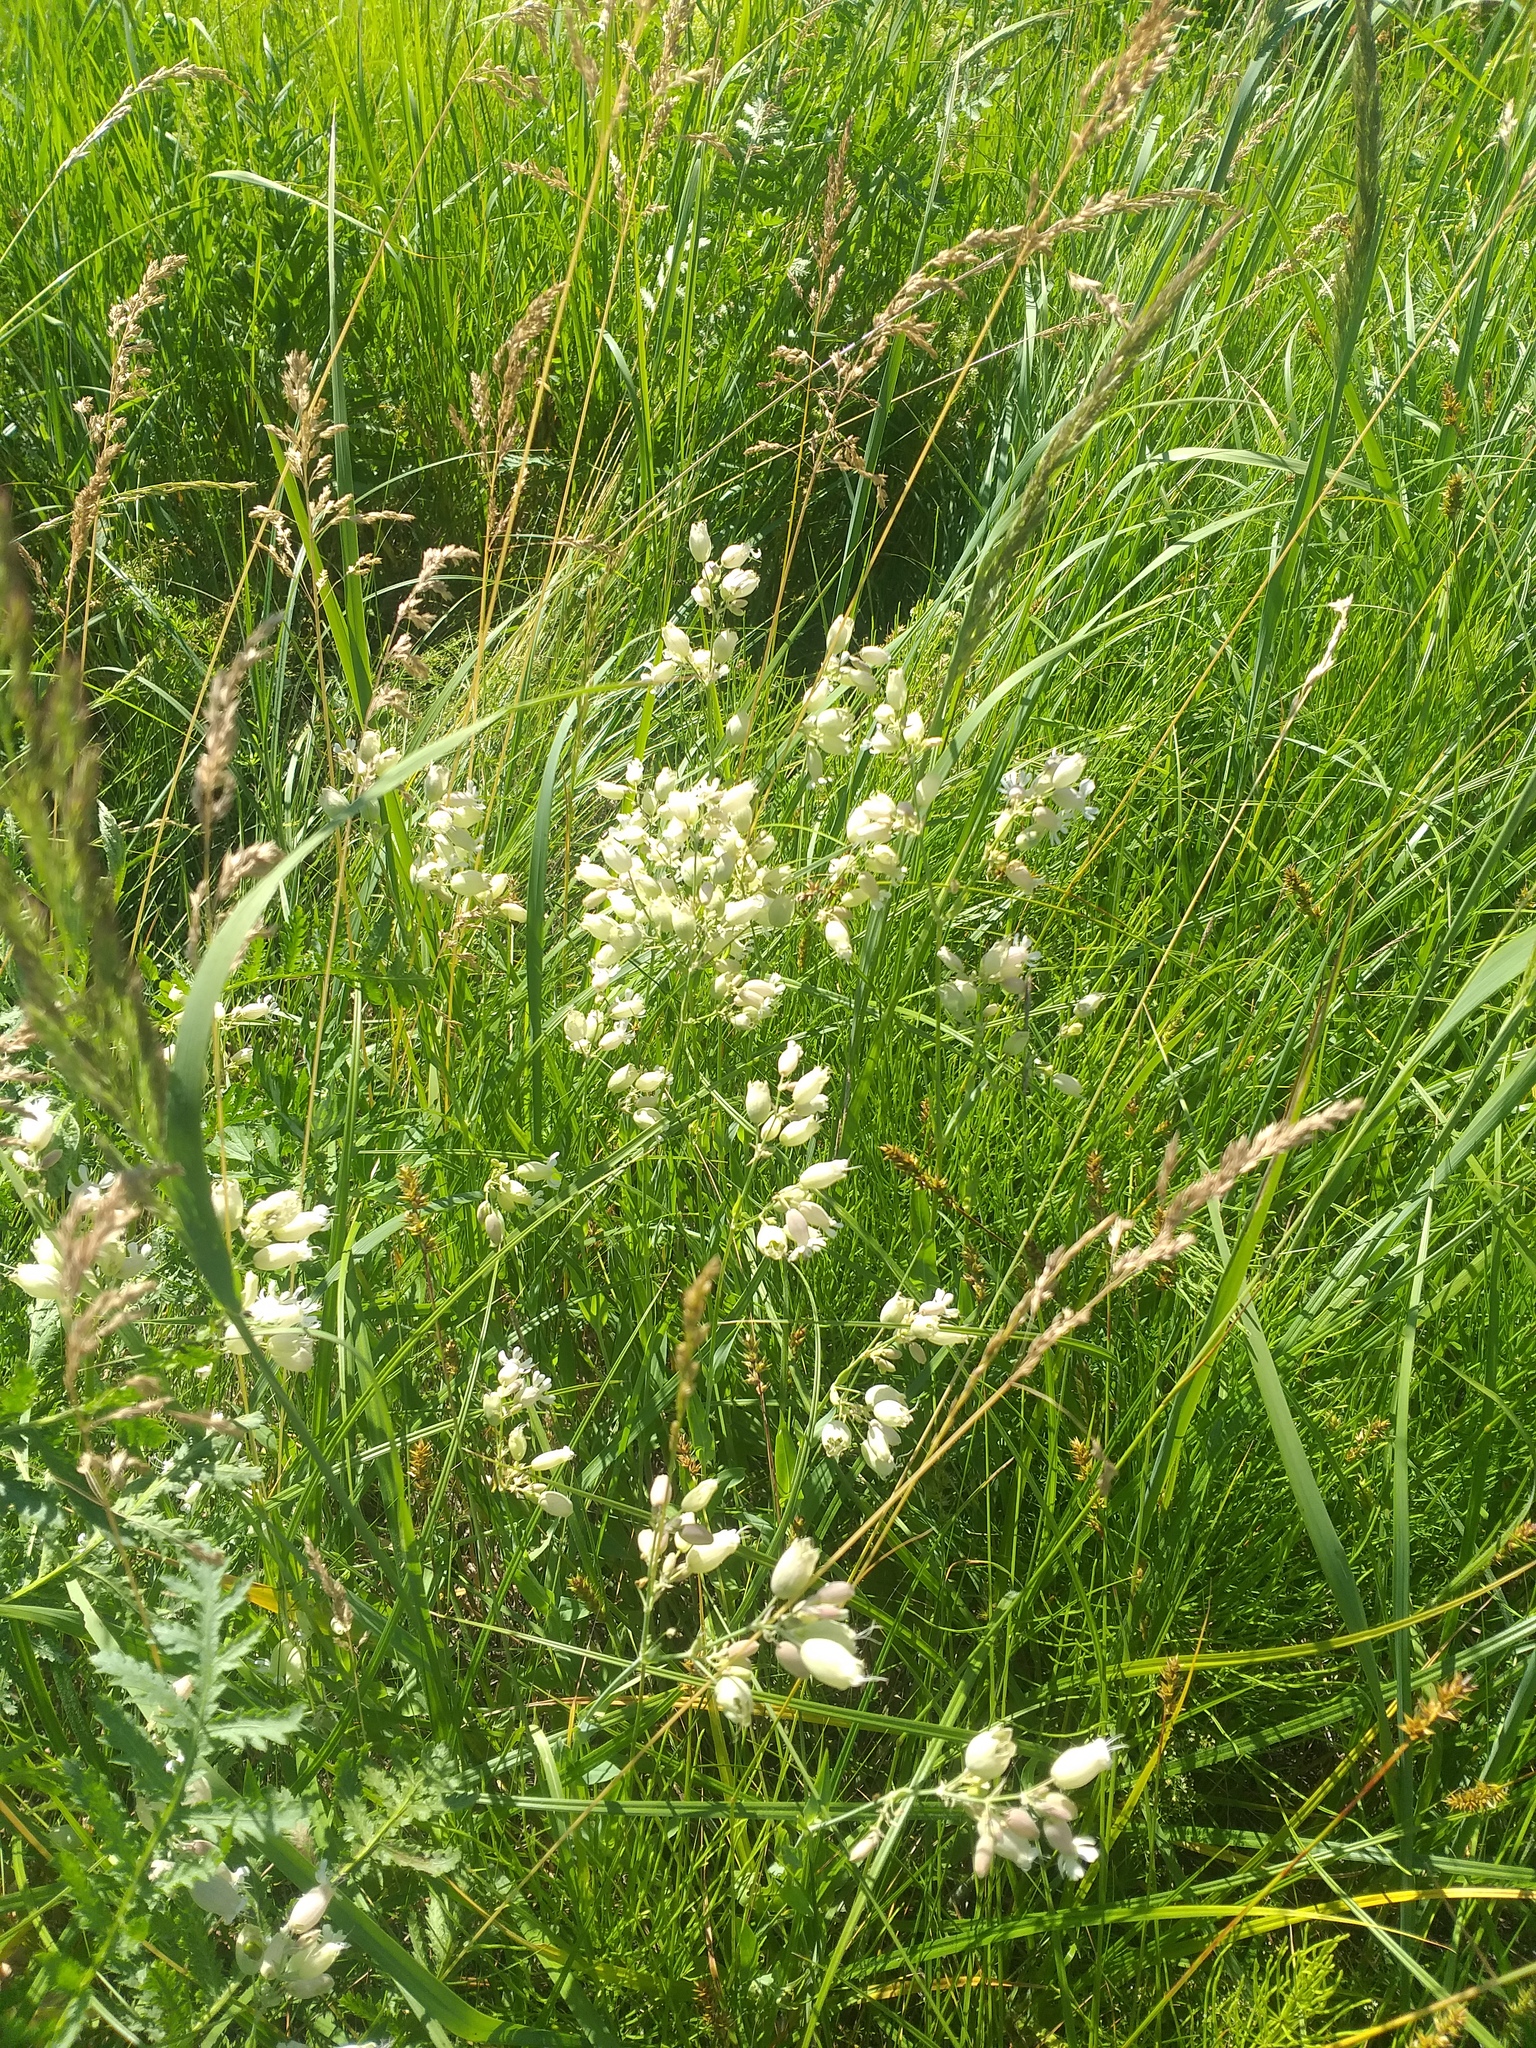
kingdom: Plantae
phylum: Tracheophyta
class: Magnoliopsida
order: Caryophyllales
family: Caryophyllaceae
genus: Silene
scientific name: Silene vulgaris
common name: Bladder campion
